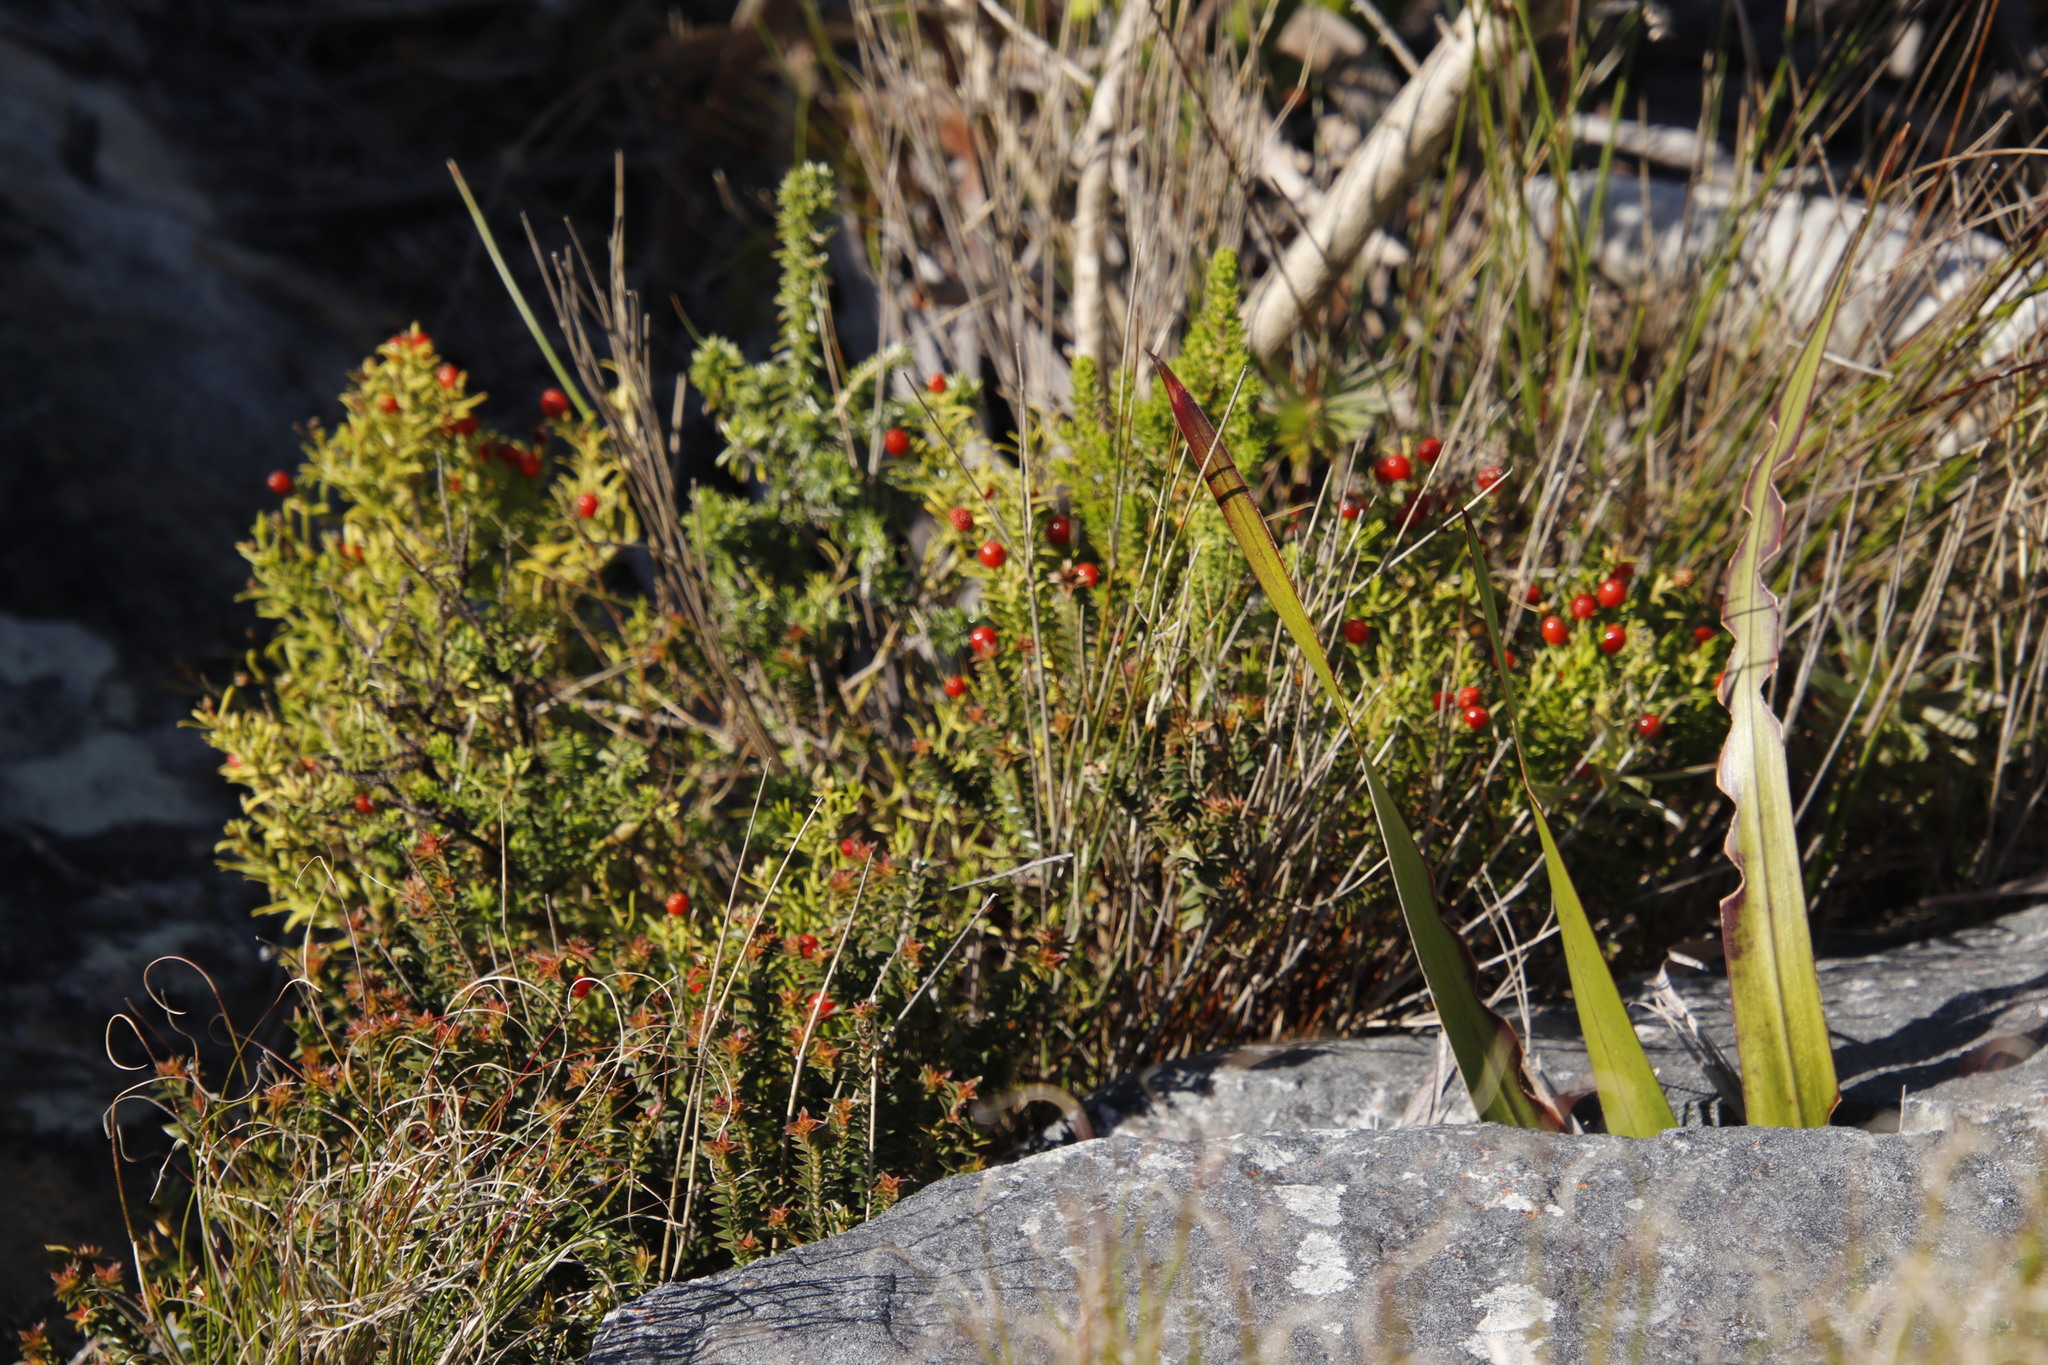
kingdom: Plantae
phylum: Tracheophyta
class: Magnoliopsida
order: Gentianales
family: Gentianaceae
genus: Chironia
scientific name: Chironia baccifera
